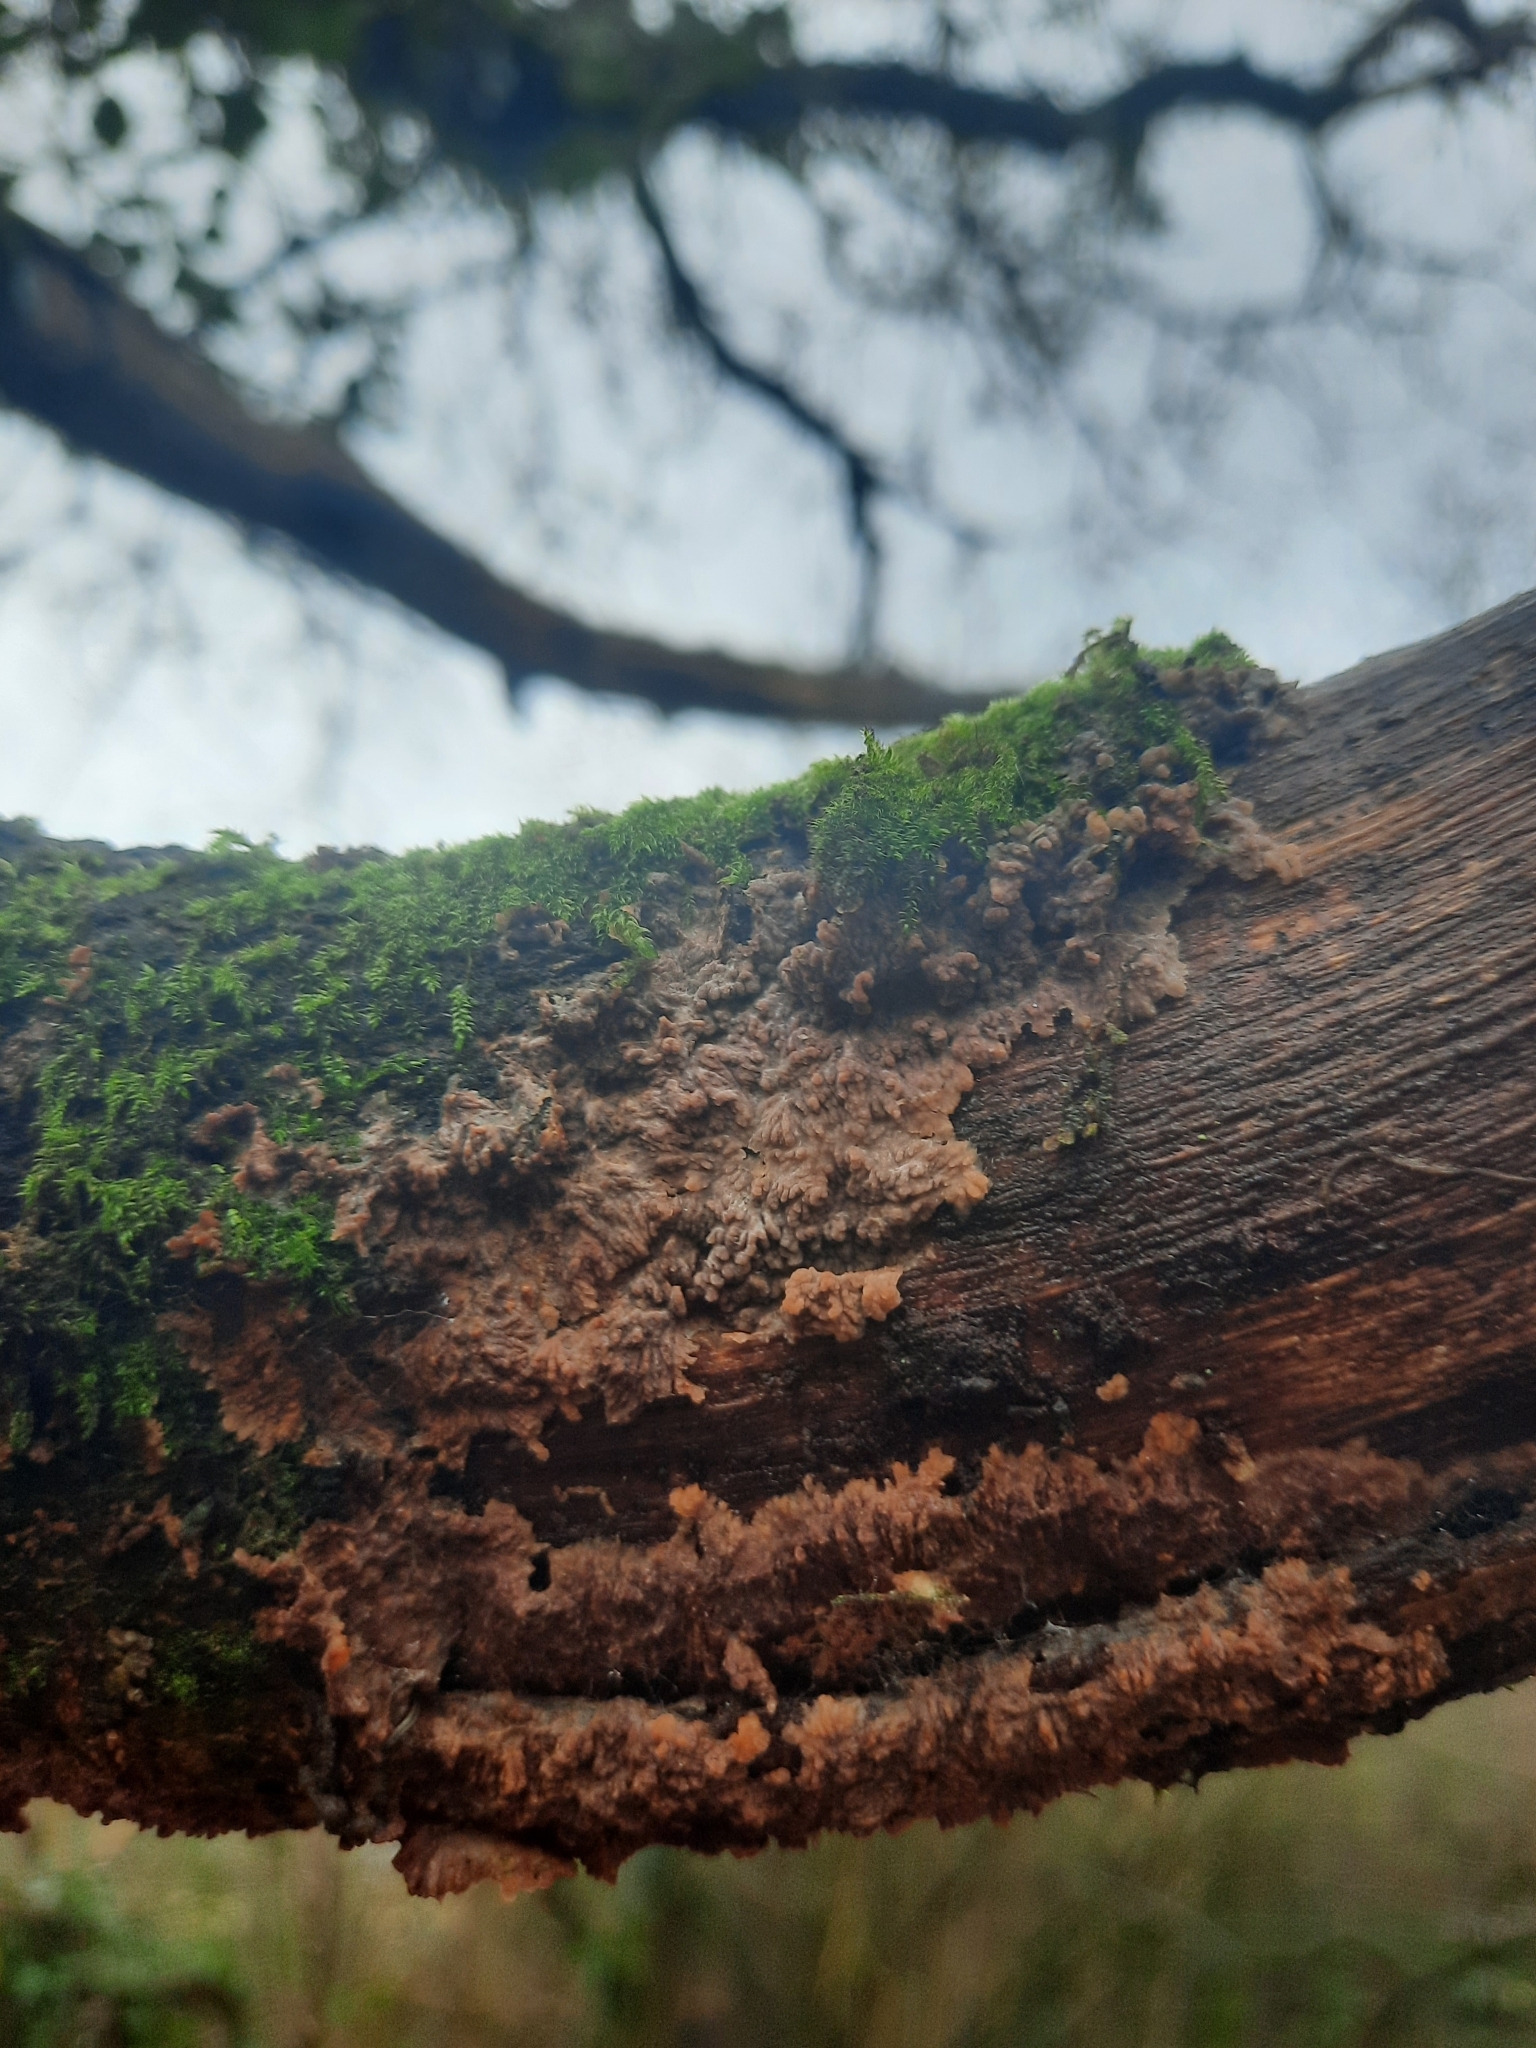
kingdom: Fungi
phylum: Basidiomycota
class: Agaricomycetes
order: Polyporales
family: Meruliaceae
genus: Phlebia
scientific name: Phlebia radiata
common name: Wrinkled crust
